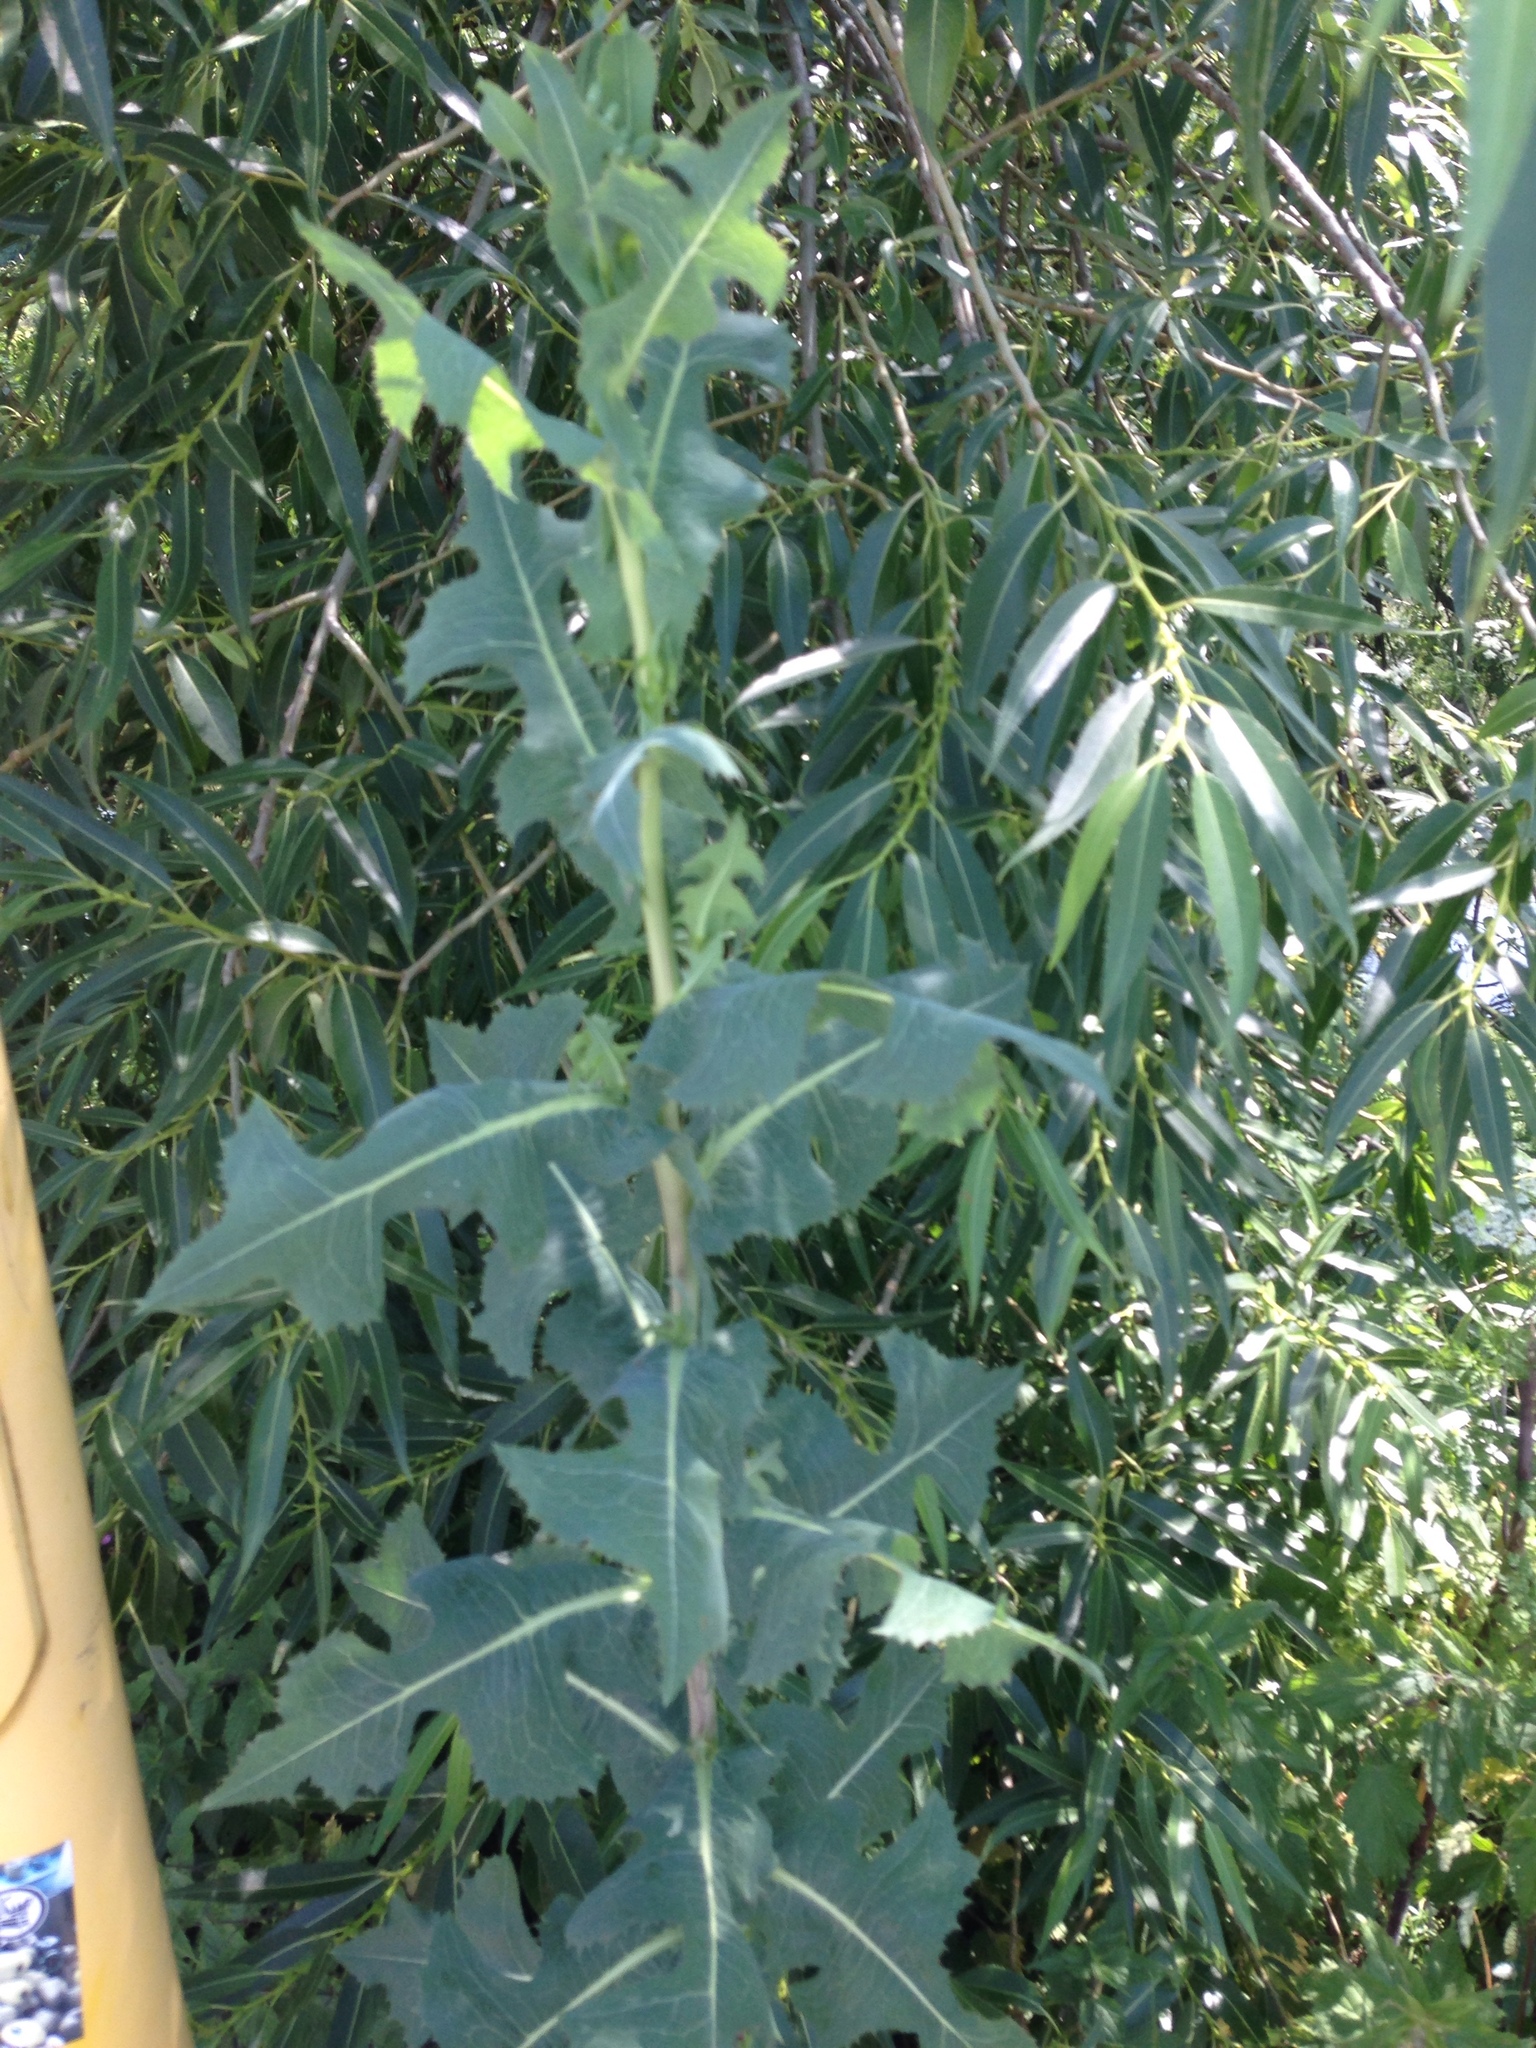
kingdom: Plantae
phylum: Tracheophyta
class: Magnoliopsida
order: Asterales
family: Asteraceae
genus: Lactuca
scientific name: Lactuca serriola
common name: Prickly lettuce
